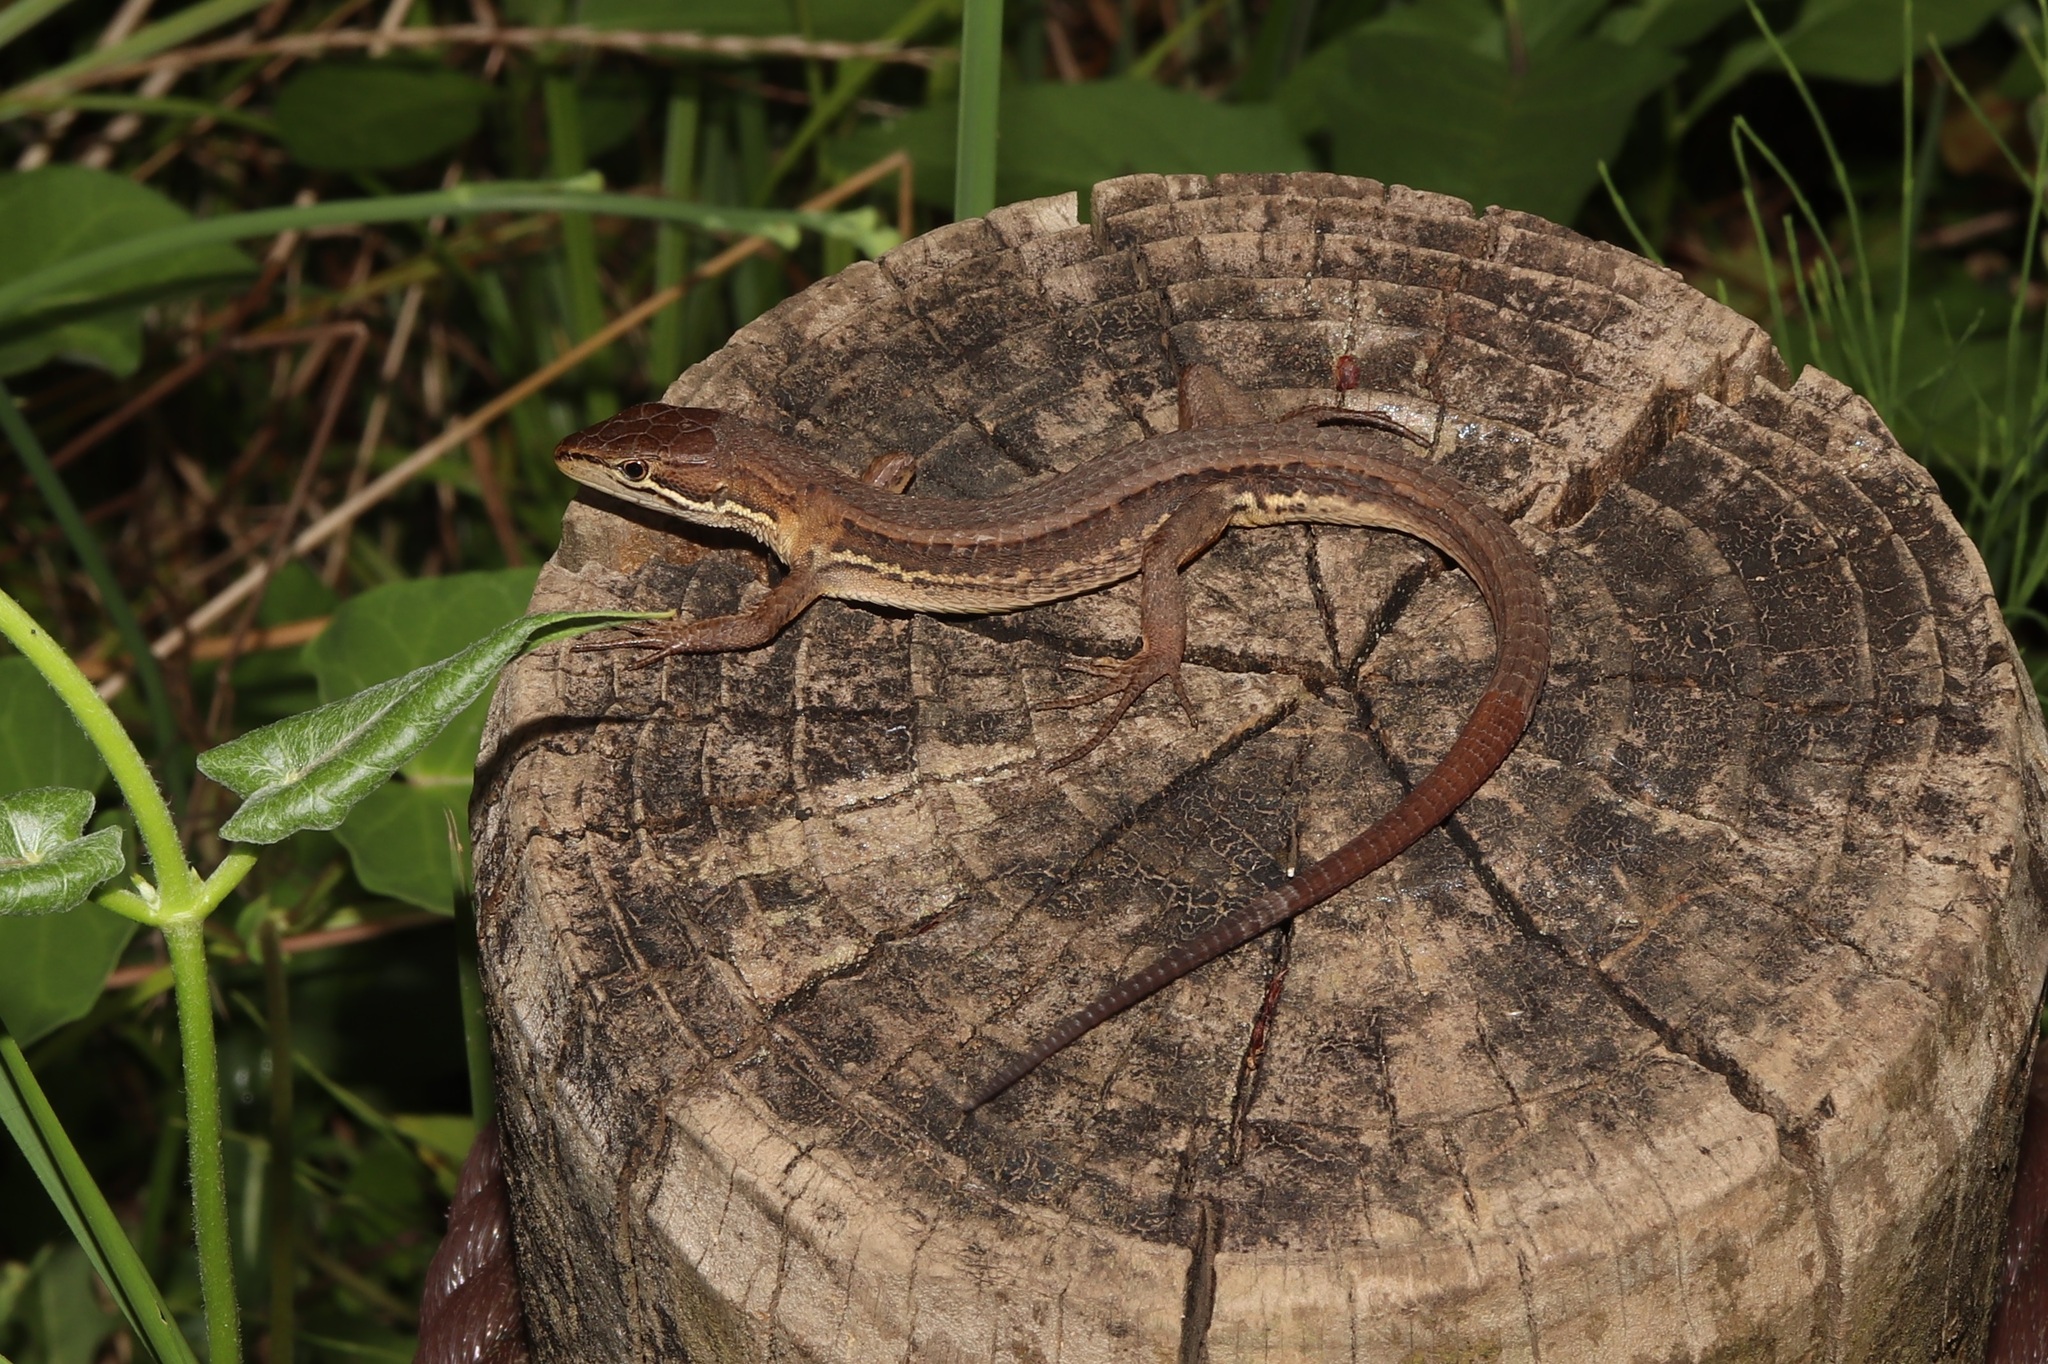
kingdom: Animalia
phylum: Chordata
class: Squamata
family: Lacertidae
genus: Takydromus
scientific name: Takydromus tachydromoides
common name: Japanese grass lizard
